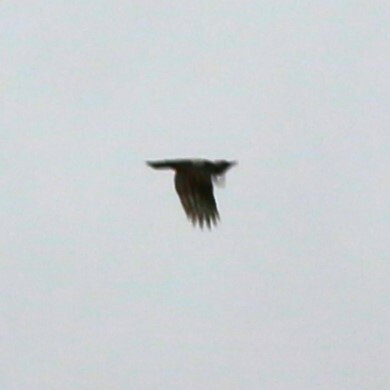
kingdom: Animalia
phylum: Chordata
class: Aves
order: Piciformes
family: Picidae
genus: Picus
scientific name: Picus viridis
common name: European green woodpecker
